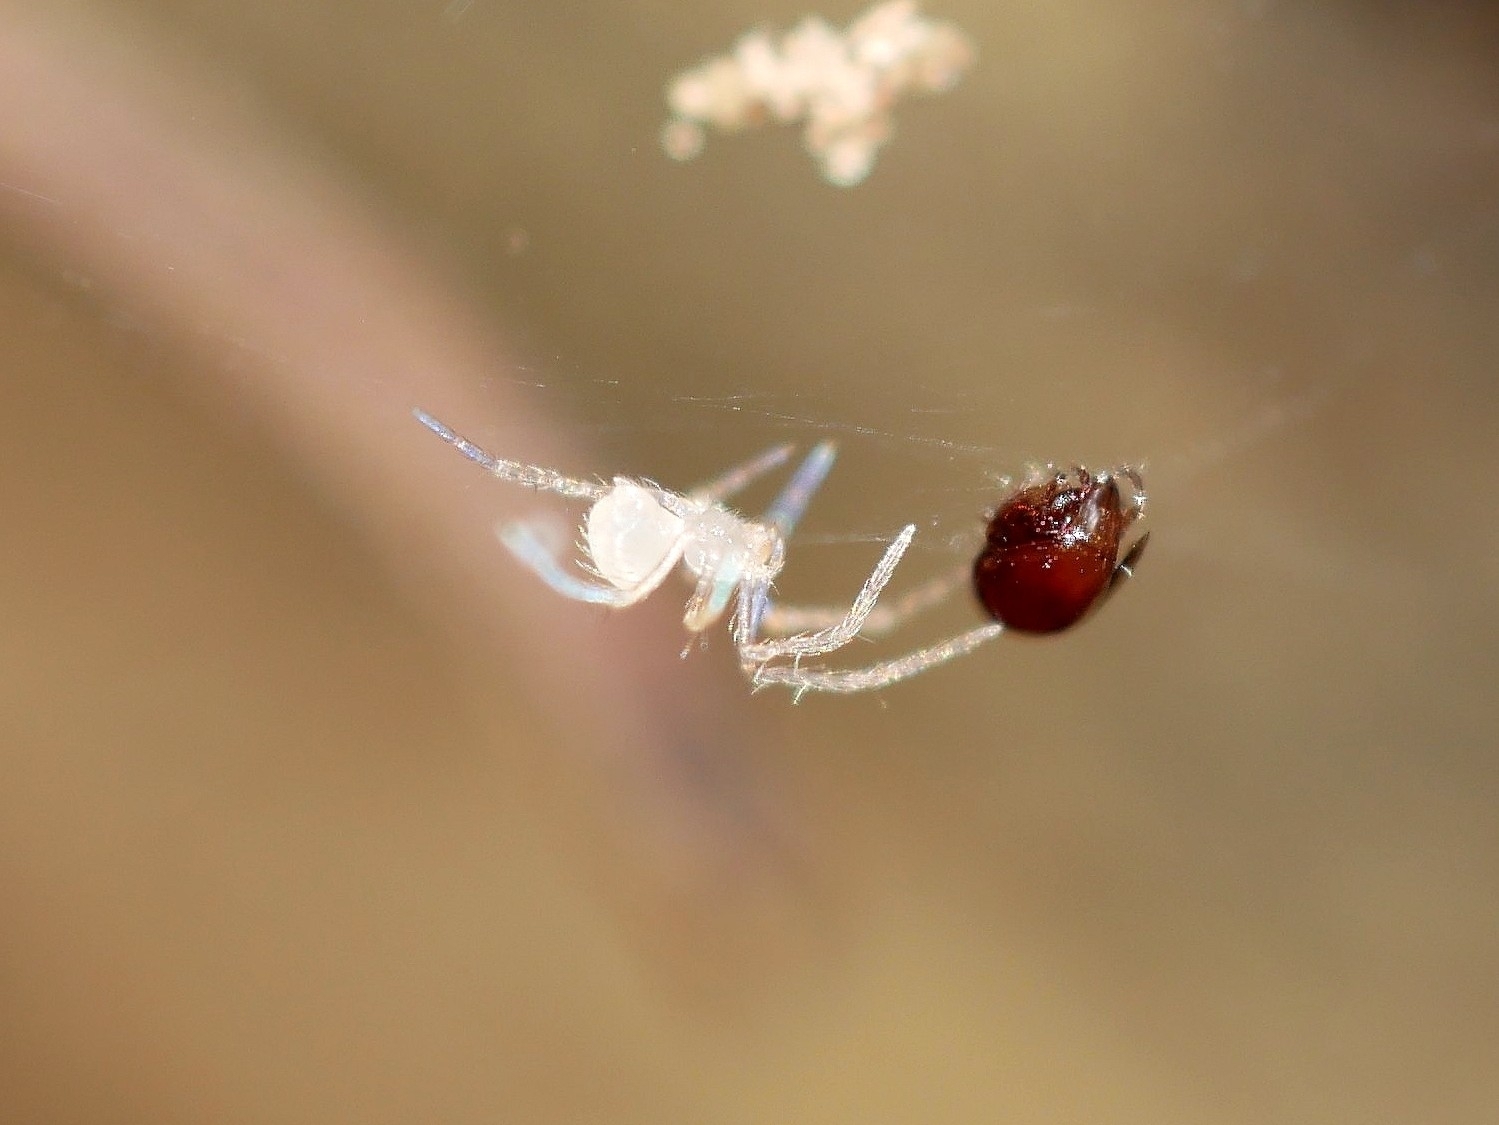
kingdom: Animalia
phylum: Arthropoda
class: Arachnida
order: Araneae
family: Telemidae
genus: Usofila
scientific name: Usofila flava
